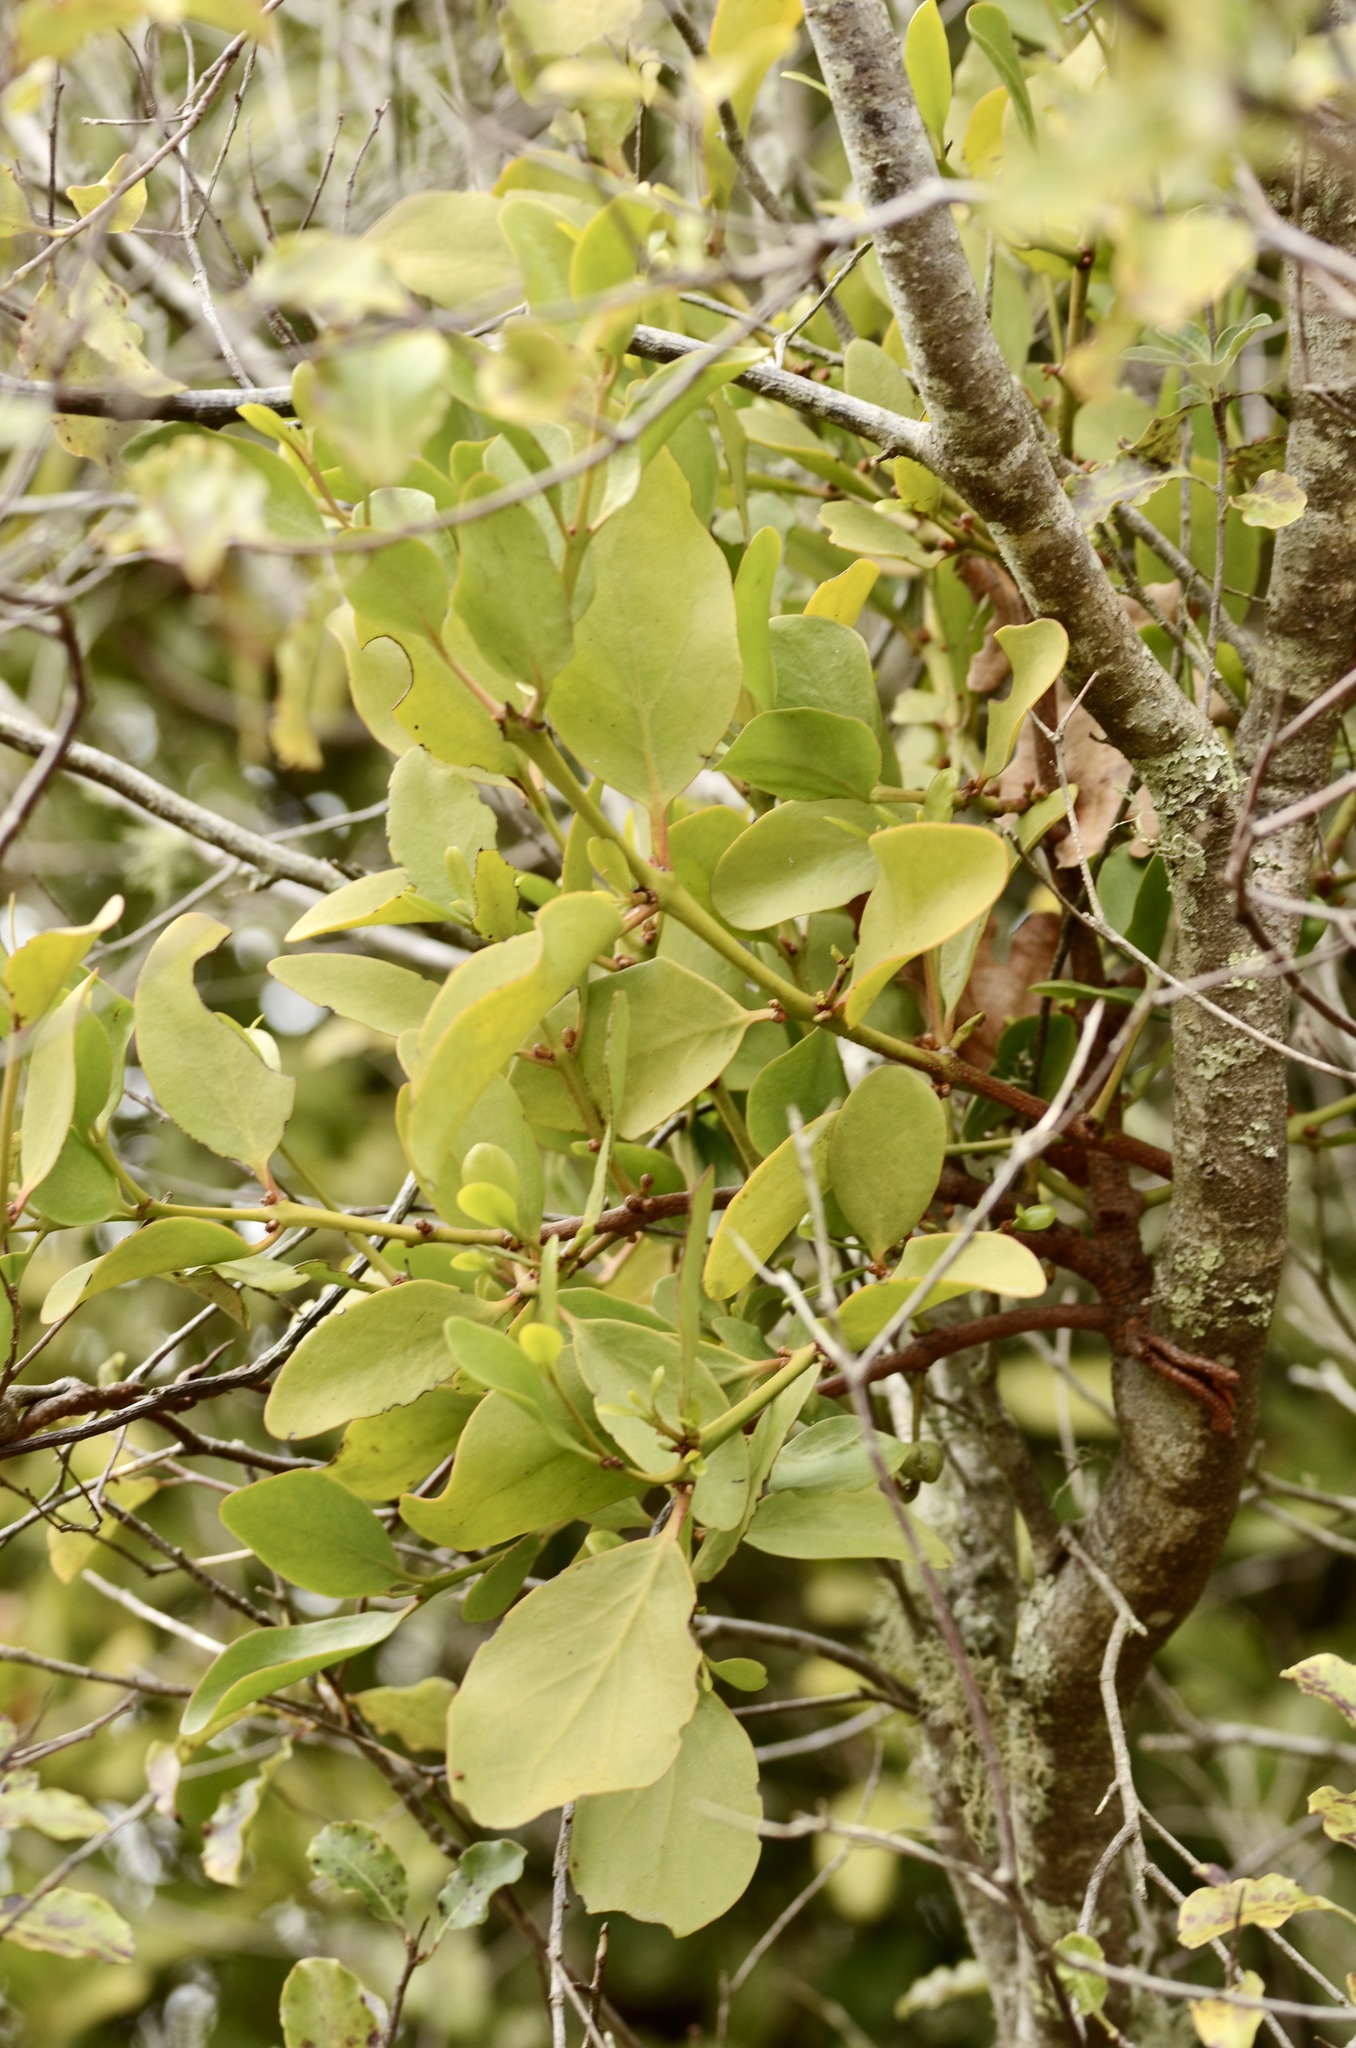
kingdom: Plantae
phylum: Tracheophyta
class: Magnoliopsida
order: Santalales
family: Loranthaceae
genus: Ileostylus
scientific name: Ileostylus micranthus
